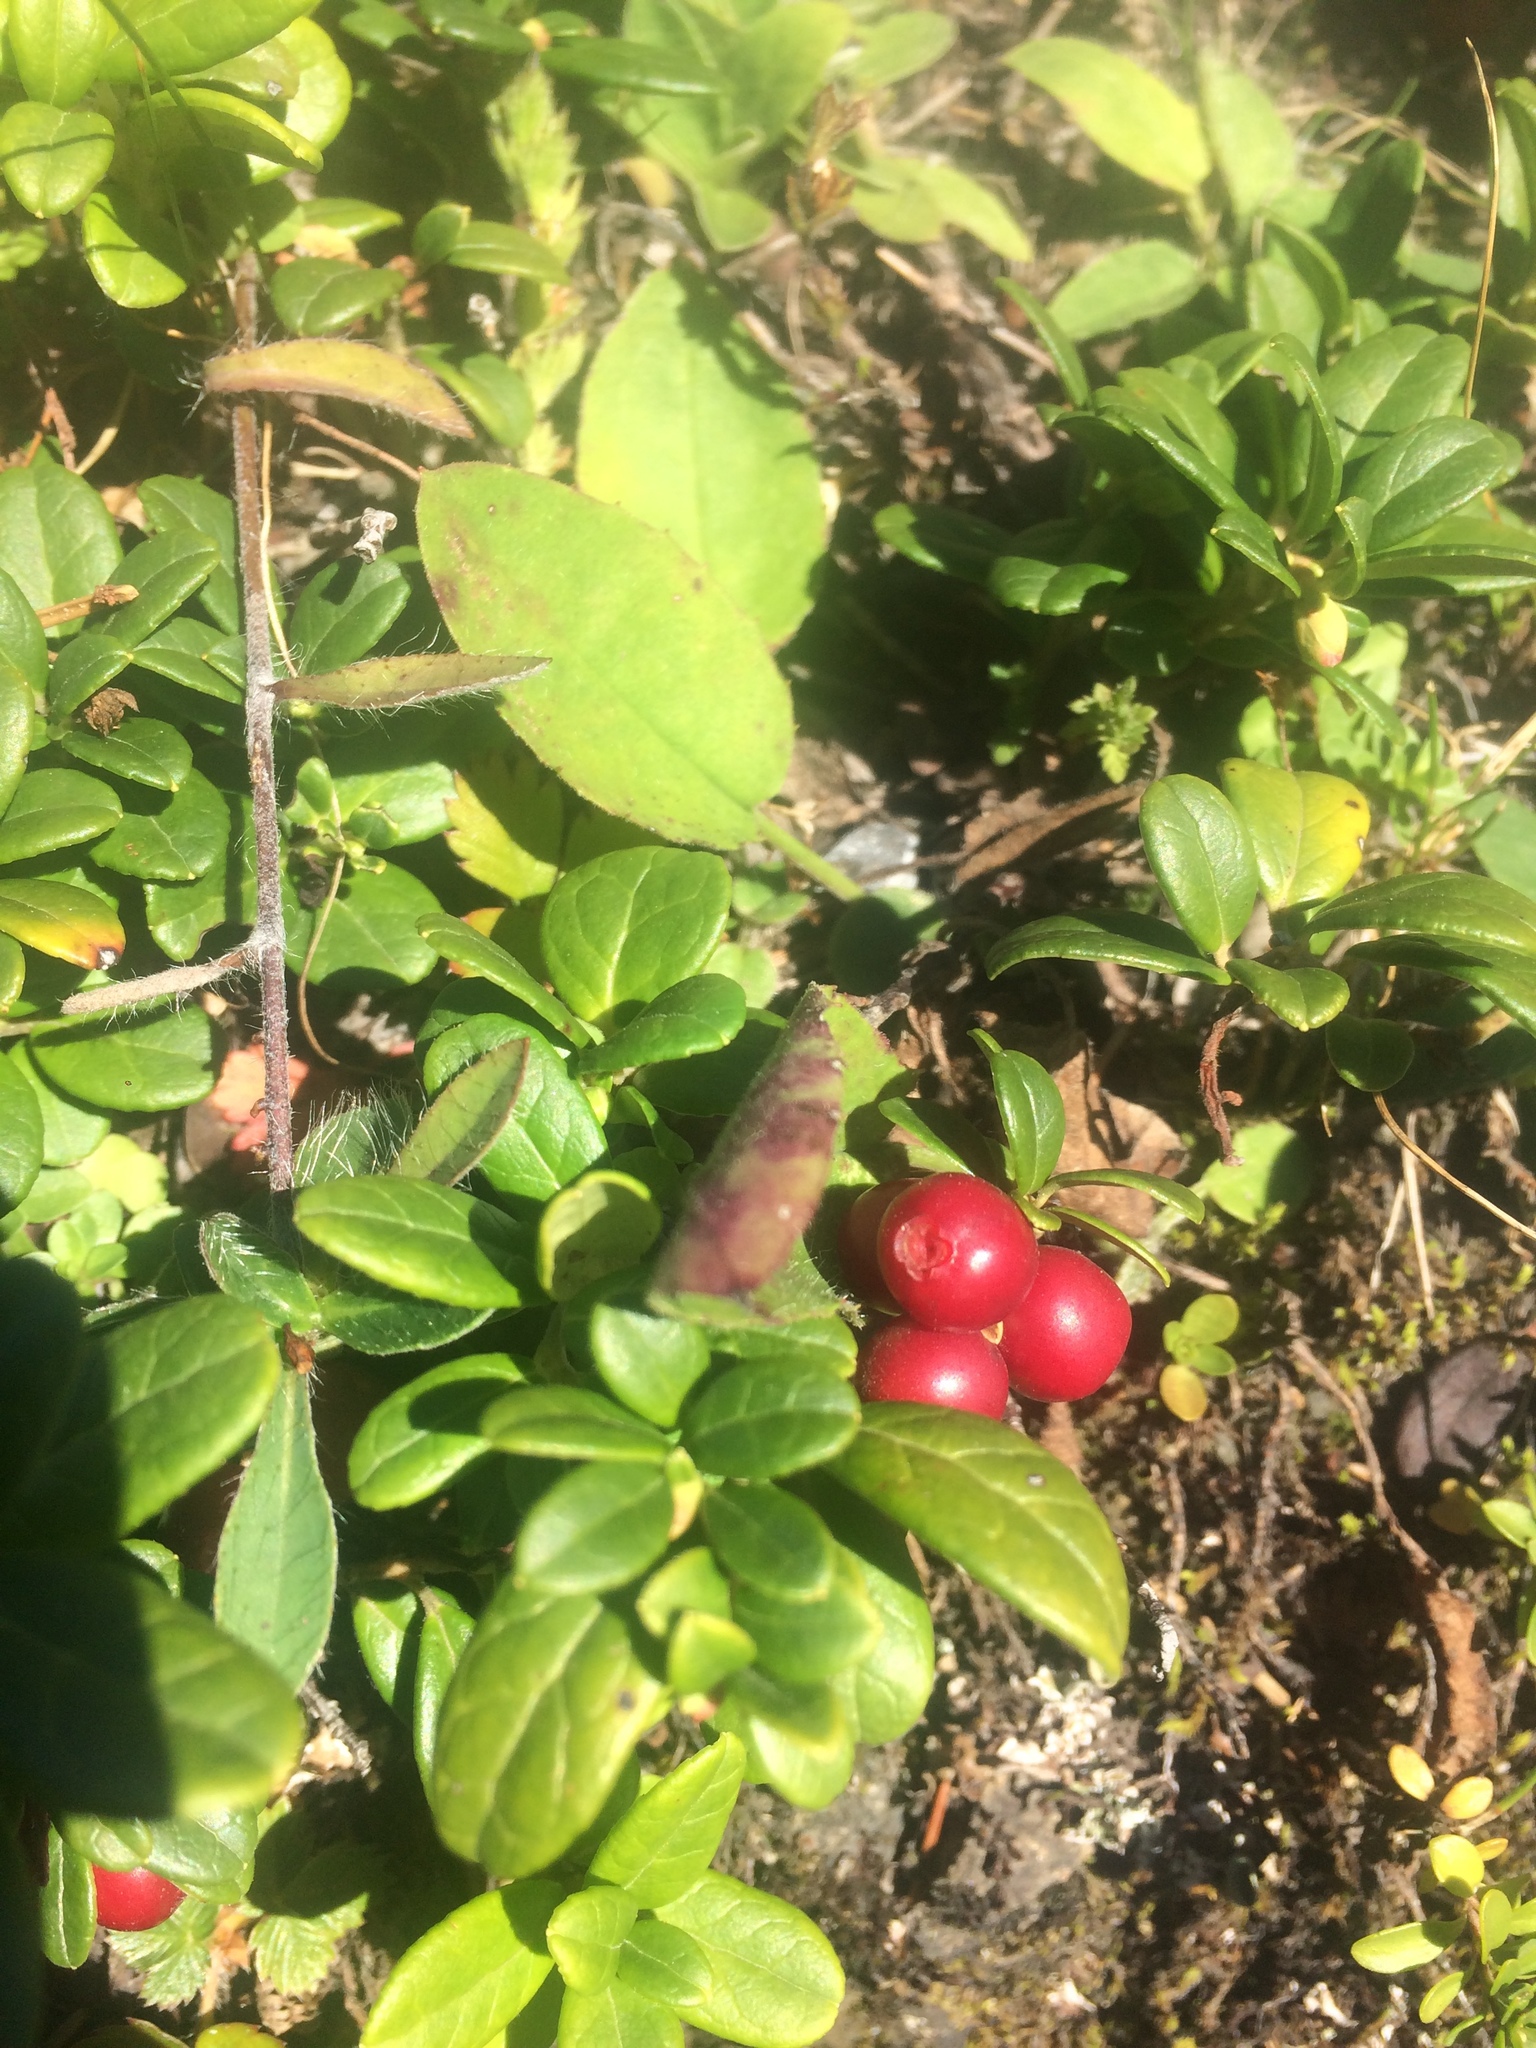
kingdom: Plantae
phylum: Tracheophyta
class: Magnoliopsida
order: Ericales
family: Ericaceae
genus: Vaccinium
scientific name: Vaccinium vitis-idaea
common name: Cowberry
